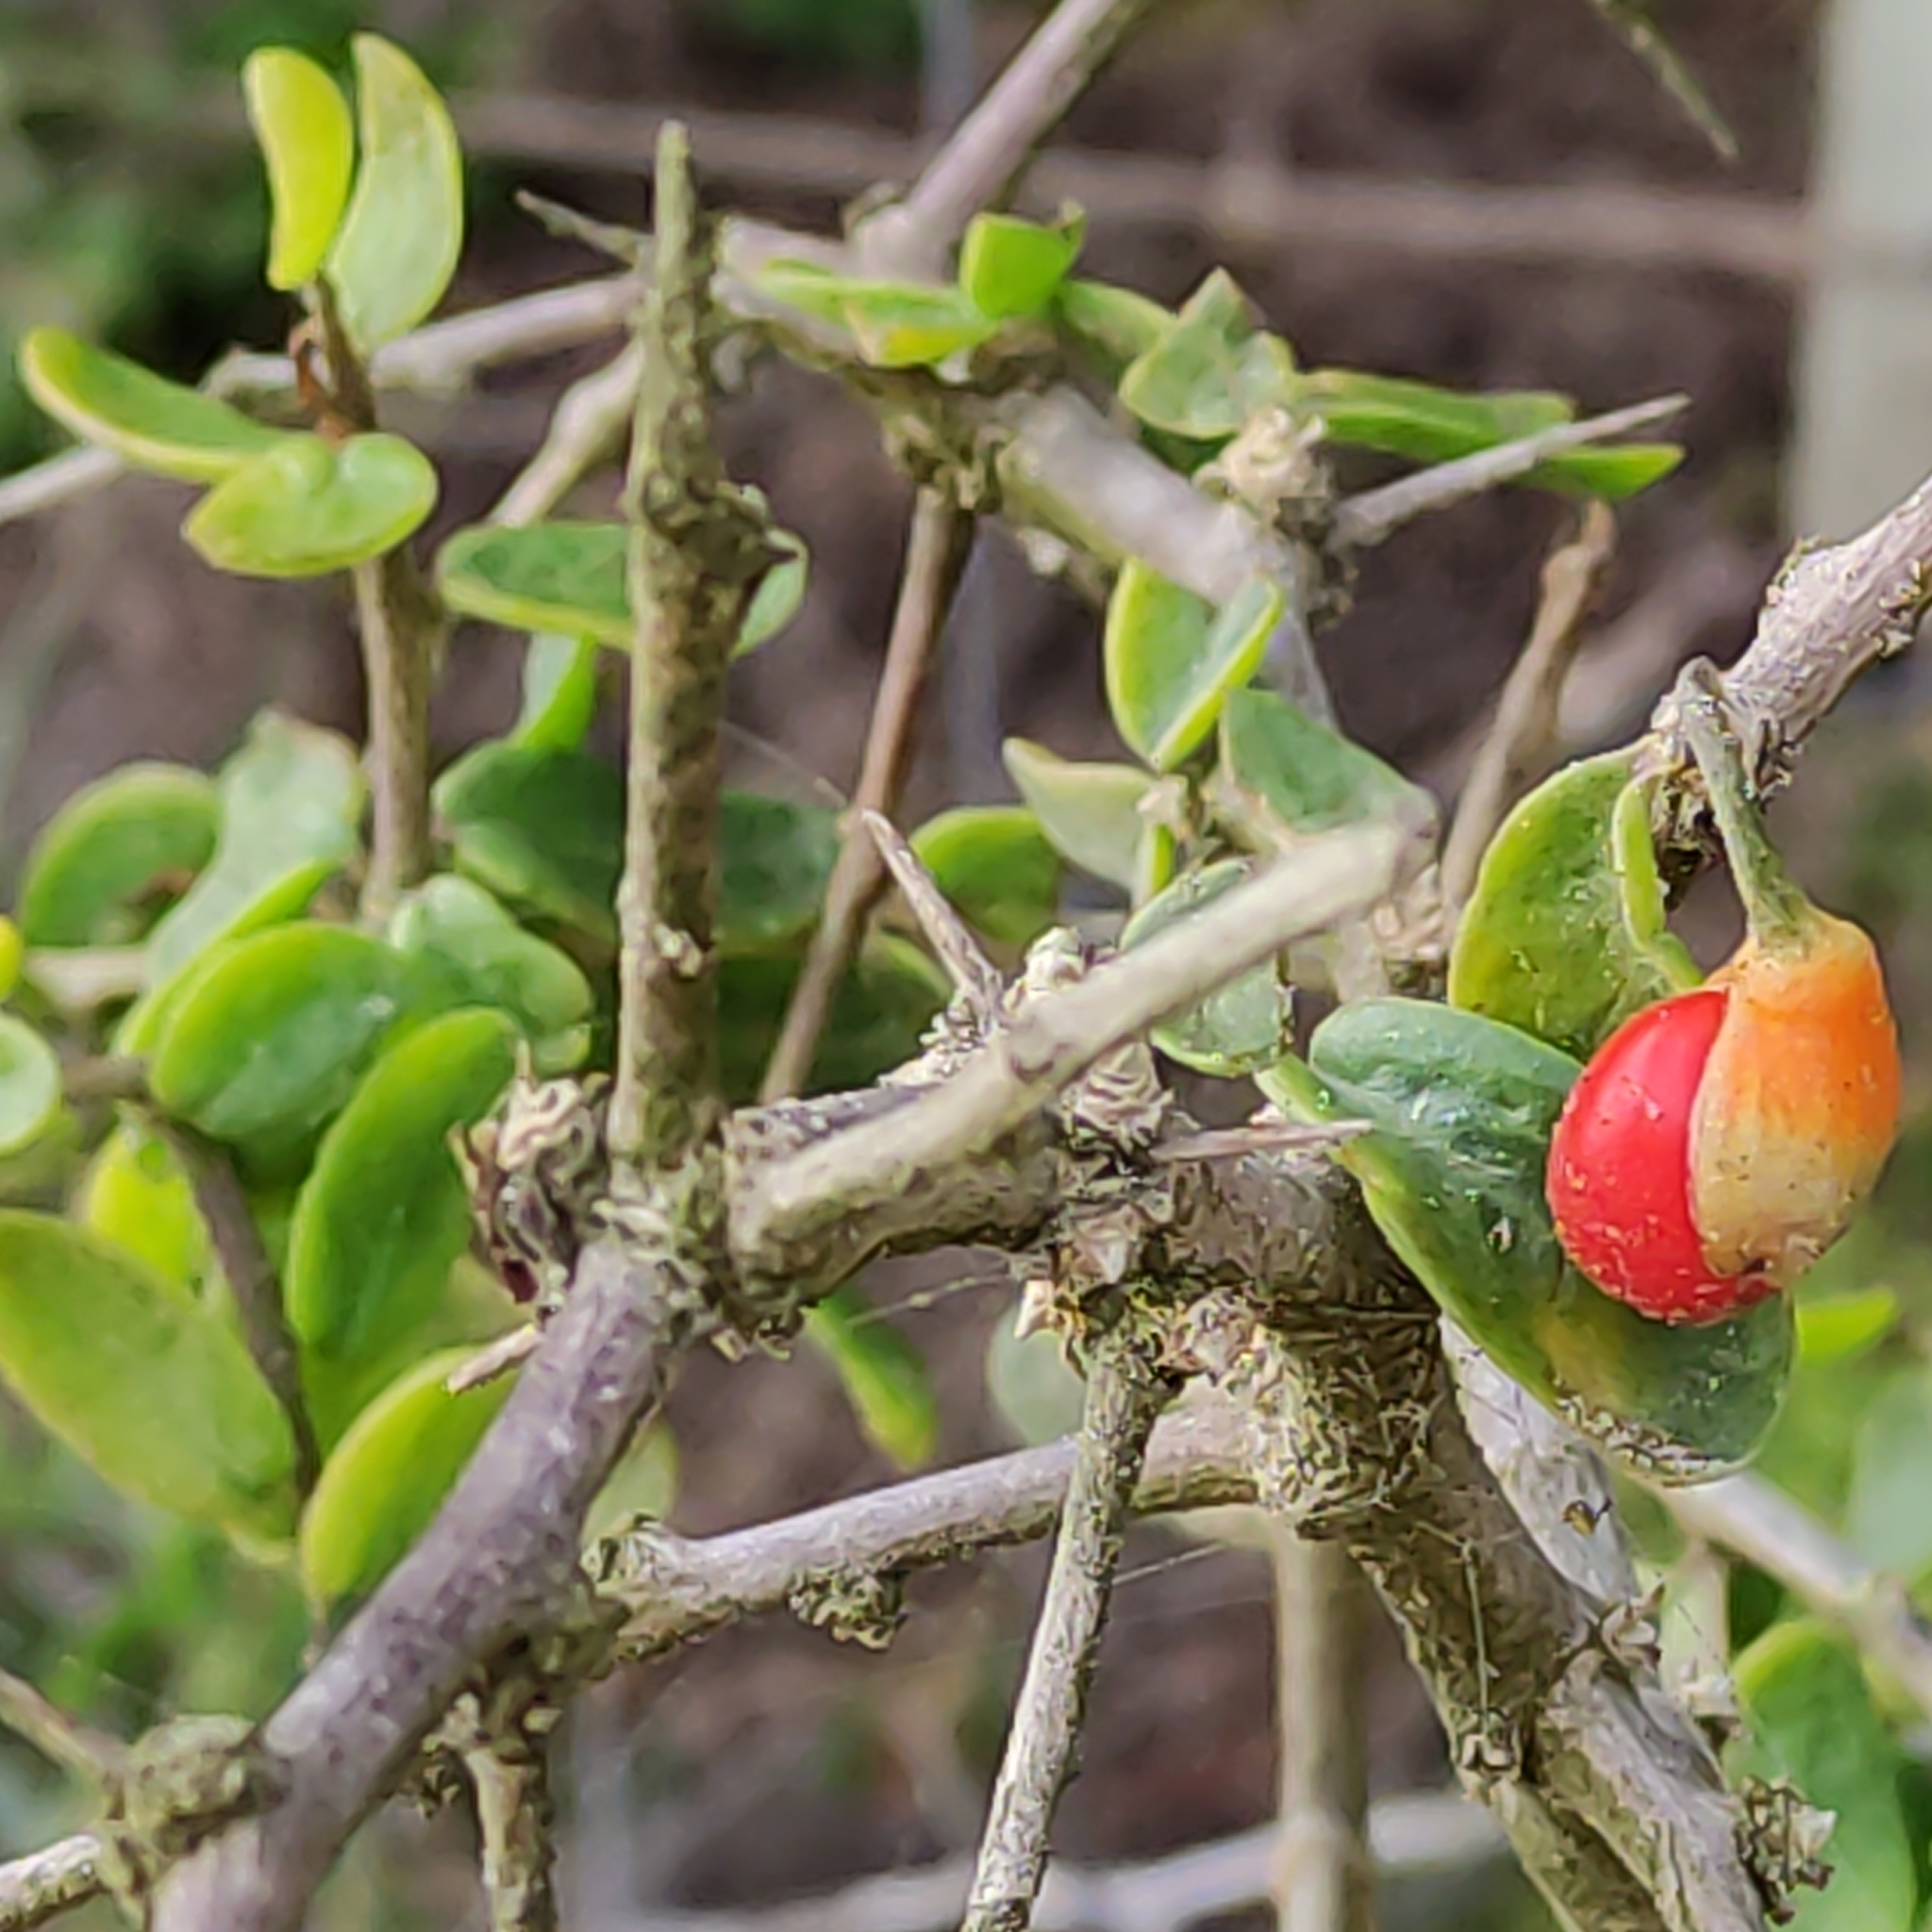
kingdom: Plantae
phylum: Tracheophyta
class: Magnoliopsida
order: Solanales
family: Solanaceae
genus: Lycium
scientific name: Lycium ferocissimum
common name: African boxthorn
